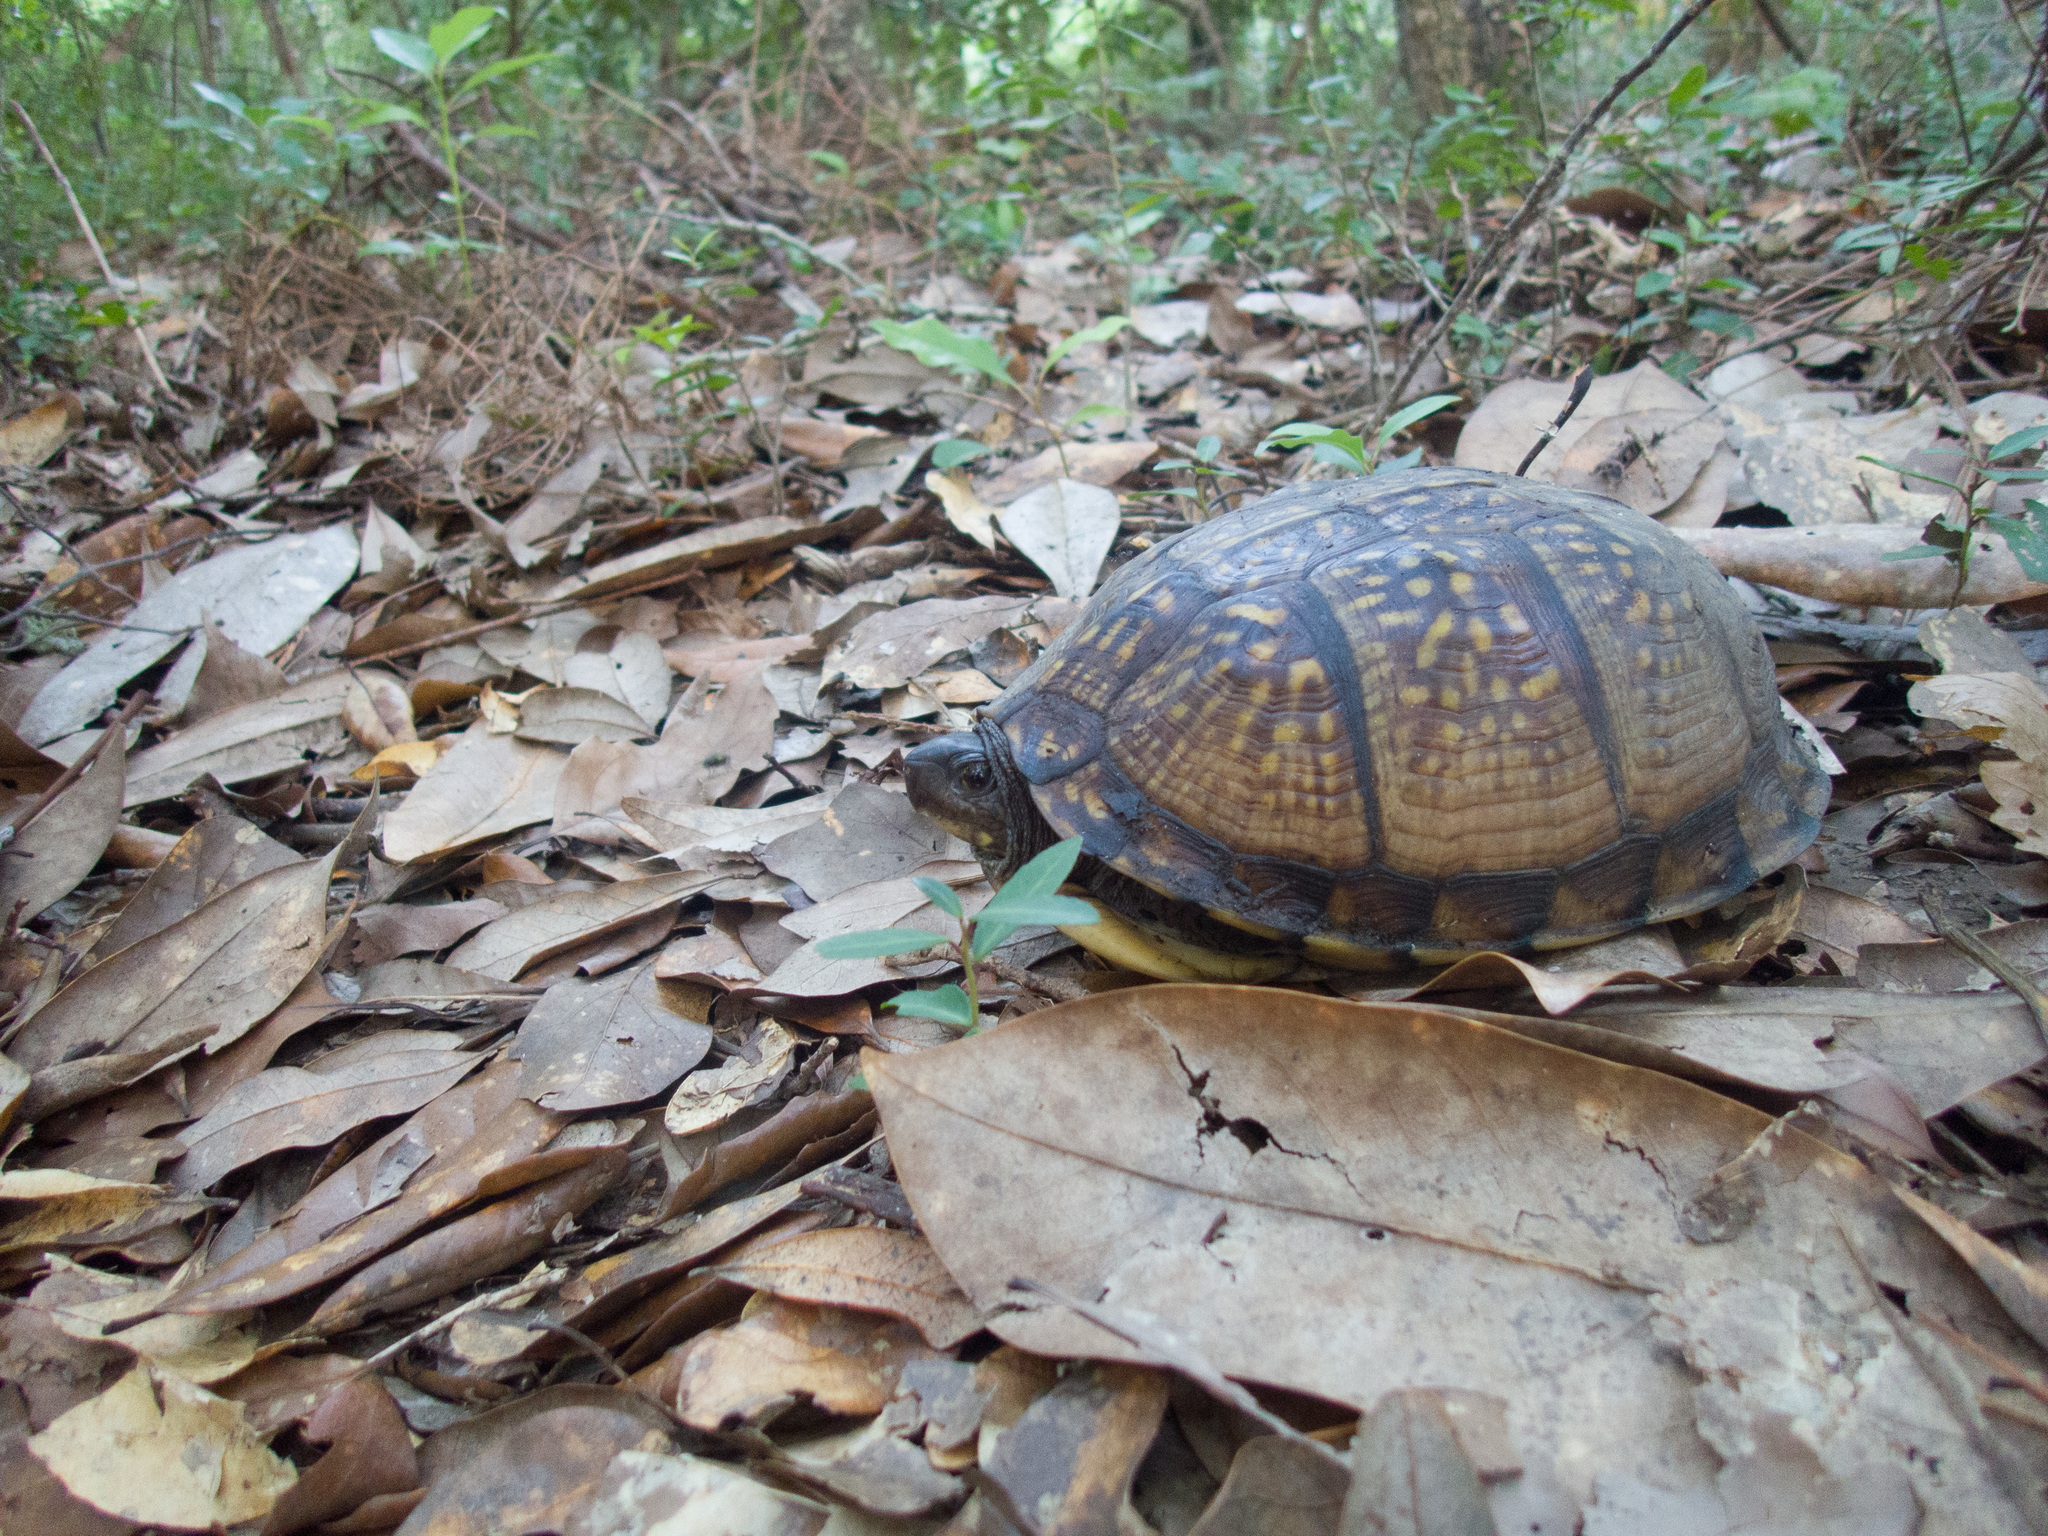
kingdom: Animalia
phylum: Chordata
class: Testudines
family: Emydidae
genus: Terrapene
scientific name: Terrapene carolina
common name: Common box turtle
